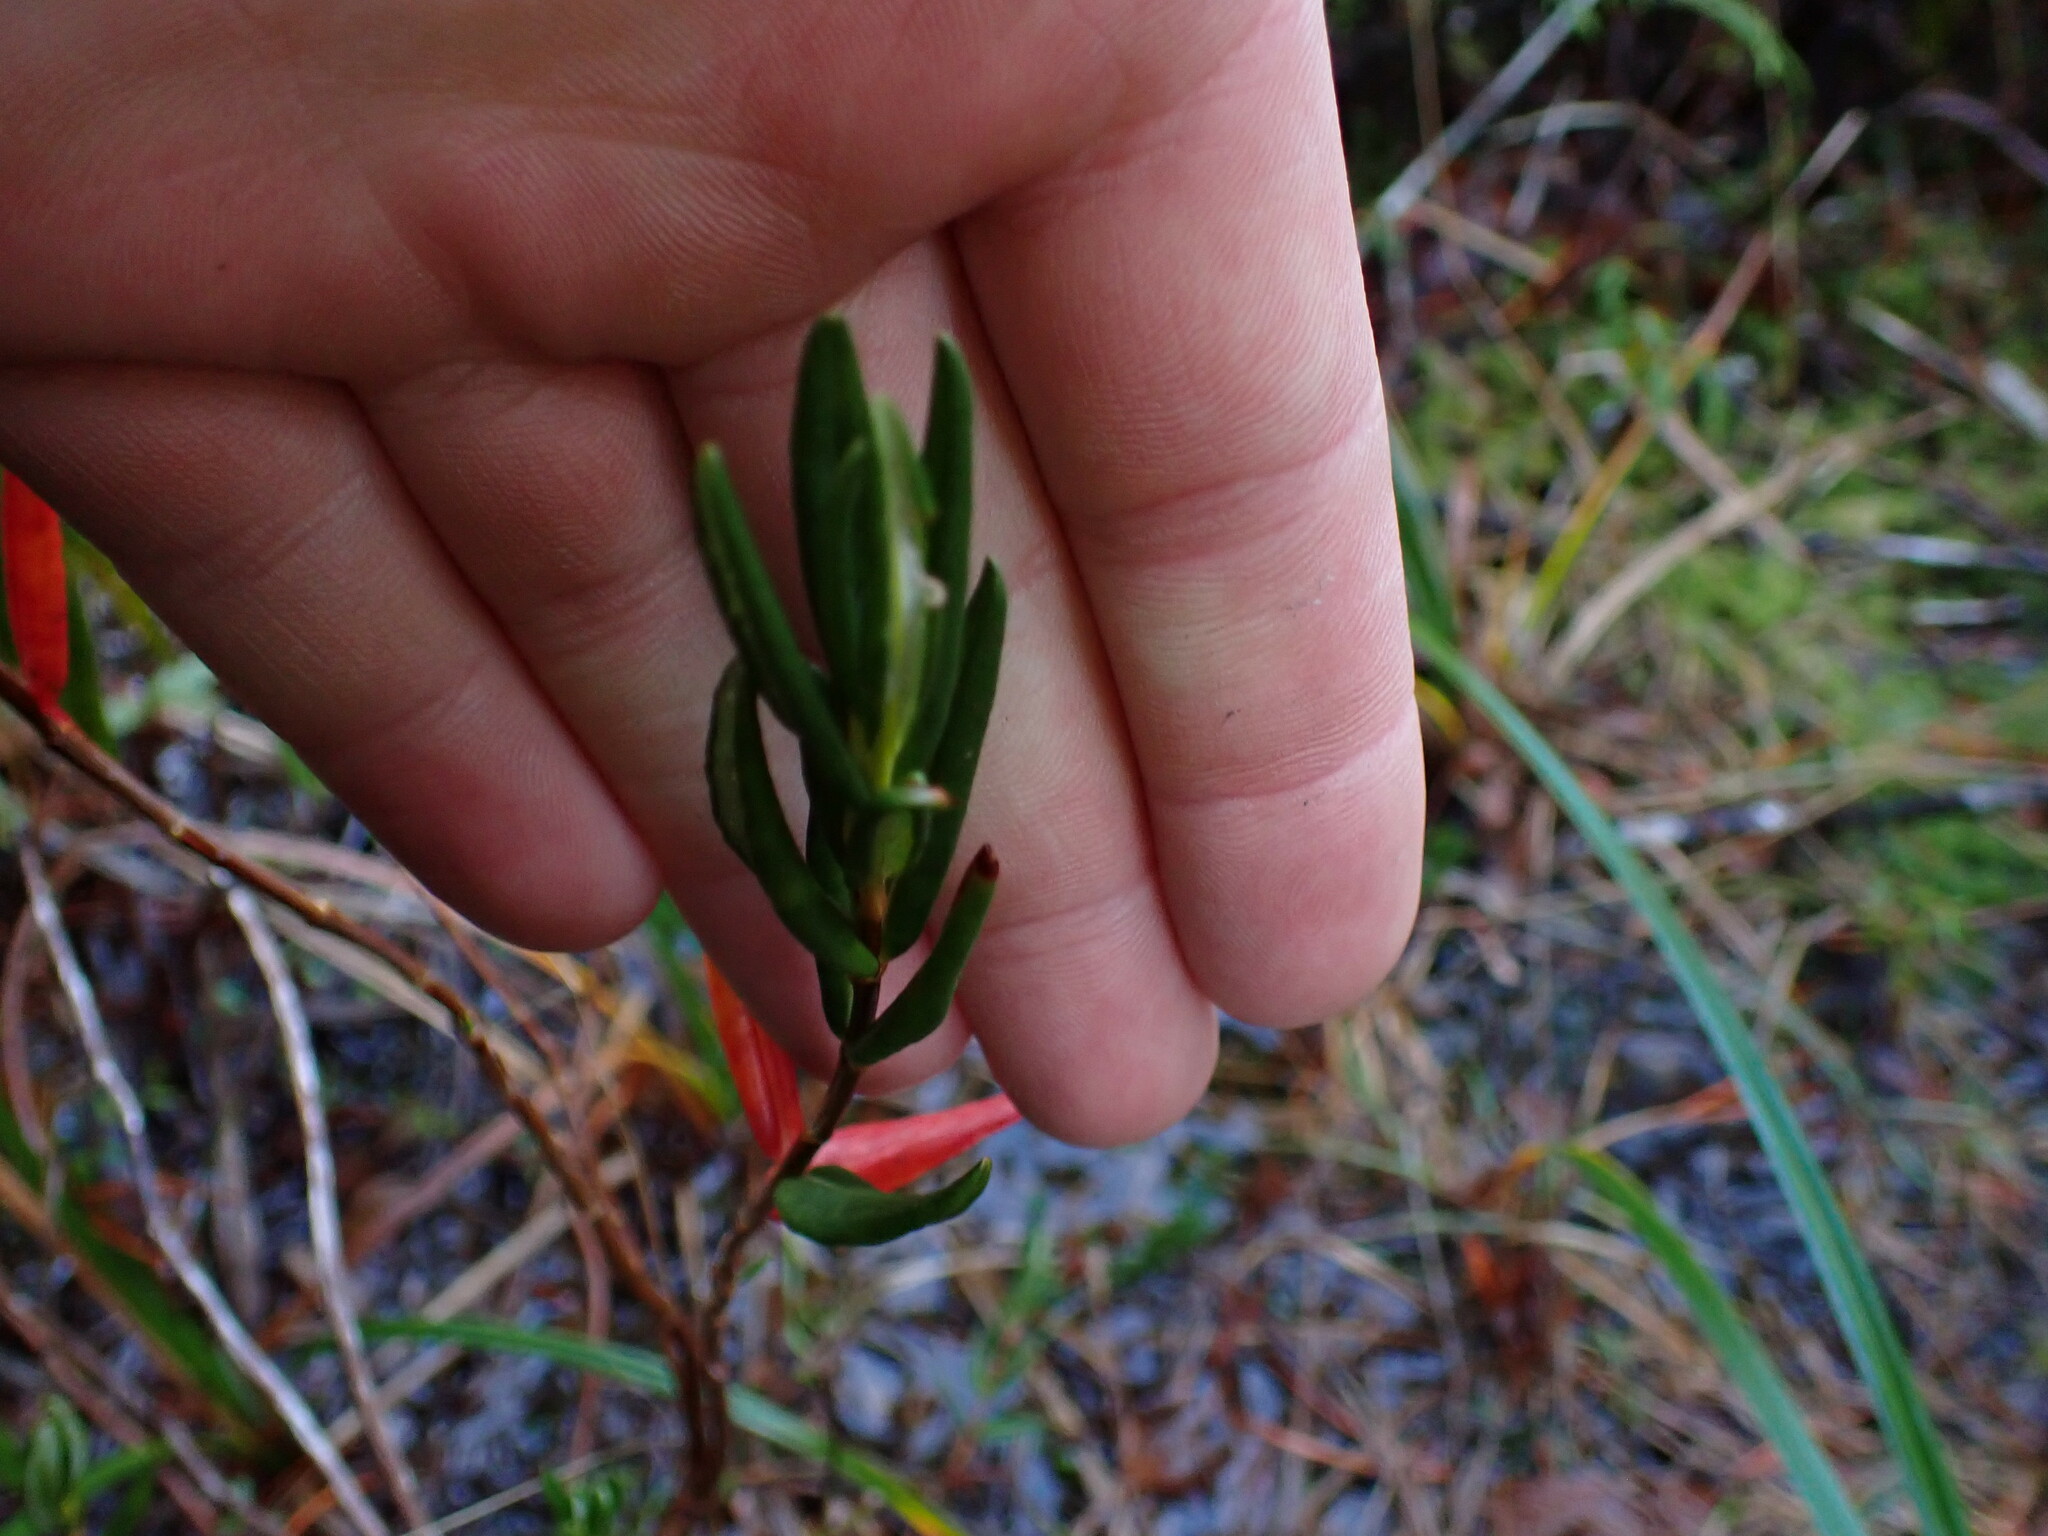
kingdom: Plantae
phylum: Tracheophyta
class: Magnoliopsida
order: Ericales
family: Ericaceae
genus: Kalmia
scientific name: Kalmia microphylla
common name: Alpine bog laurel
